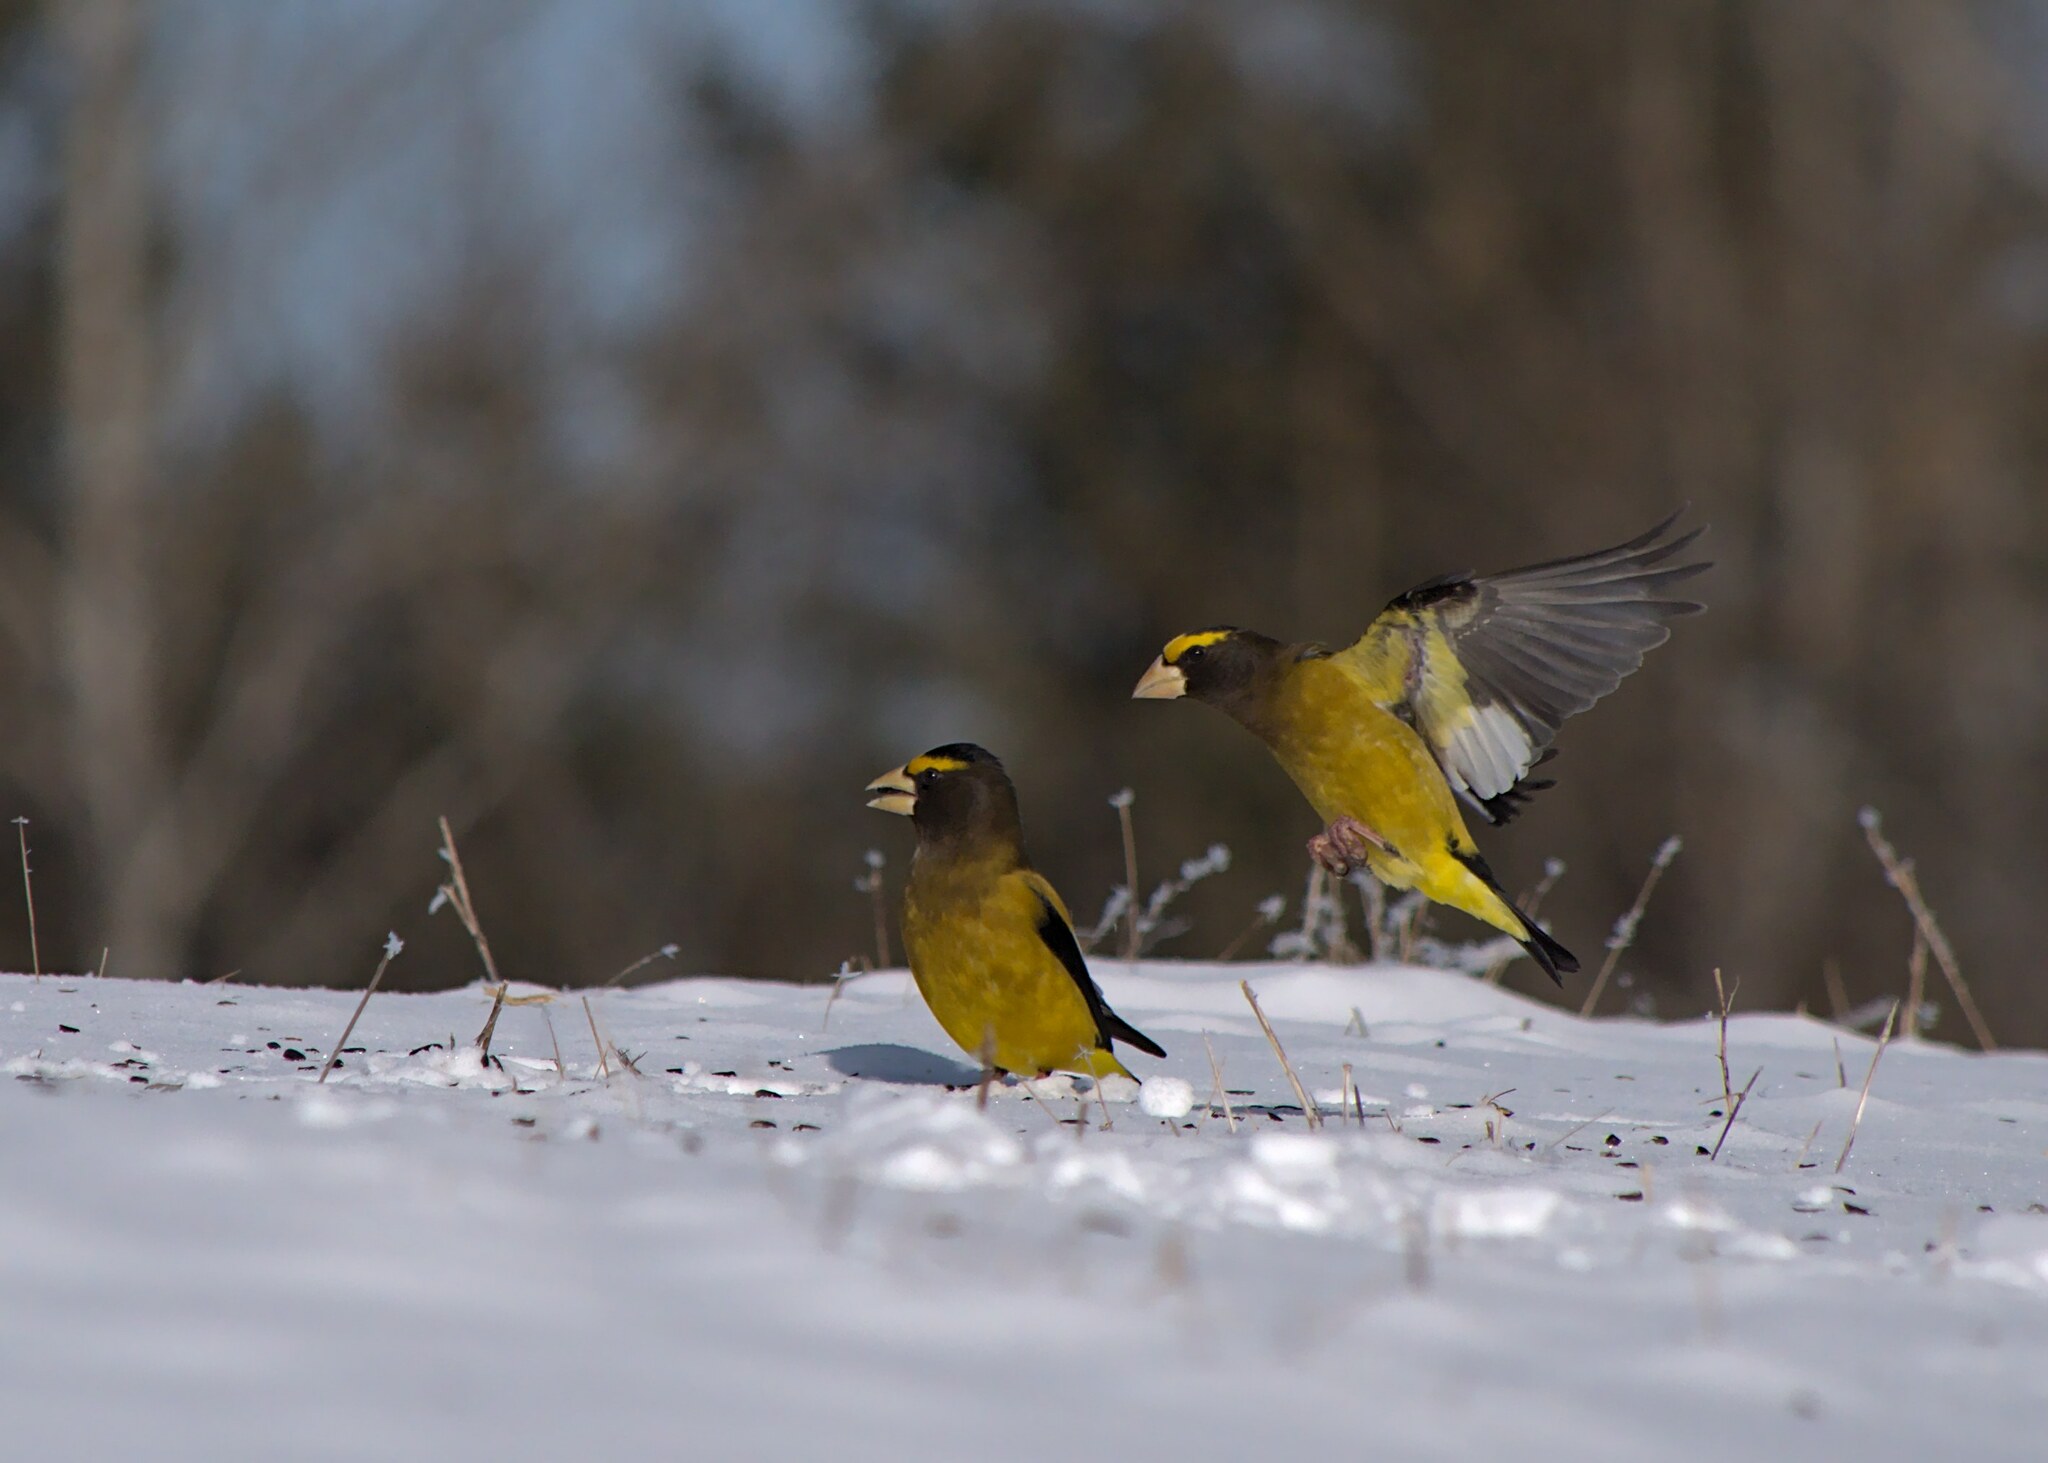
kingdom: Animalia
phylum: Chordata
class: Aves
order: Passeriformes
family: Fringillidae
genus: Hesperiphona
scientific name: Hesperiphona vespertina
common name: Evening grosbeak
